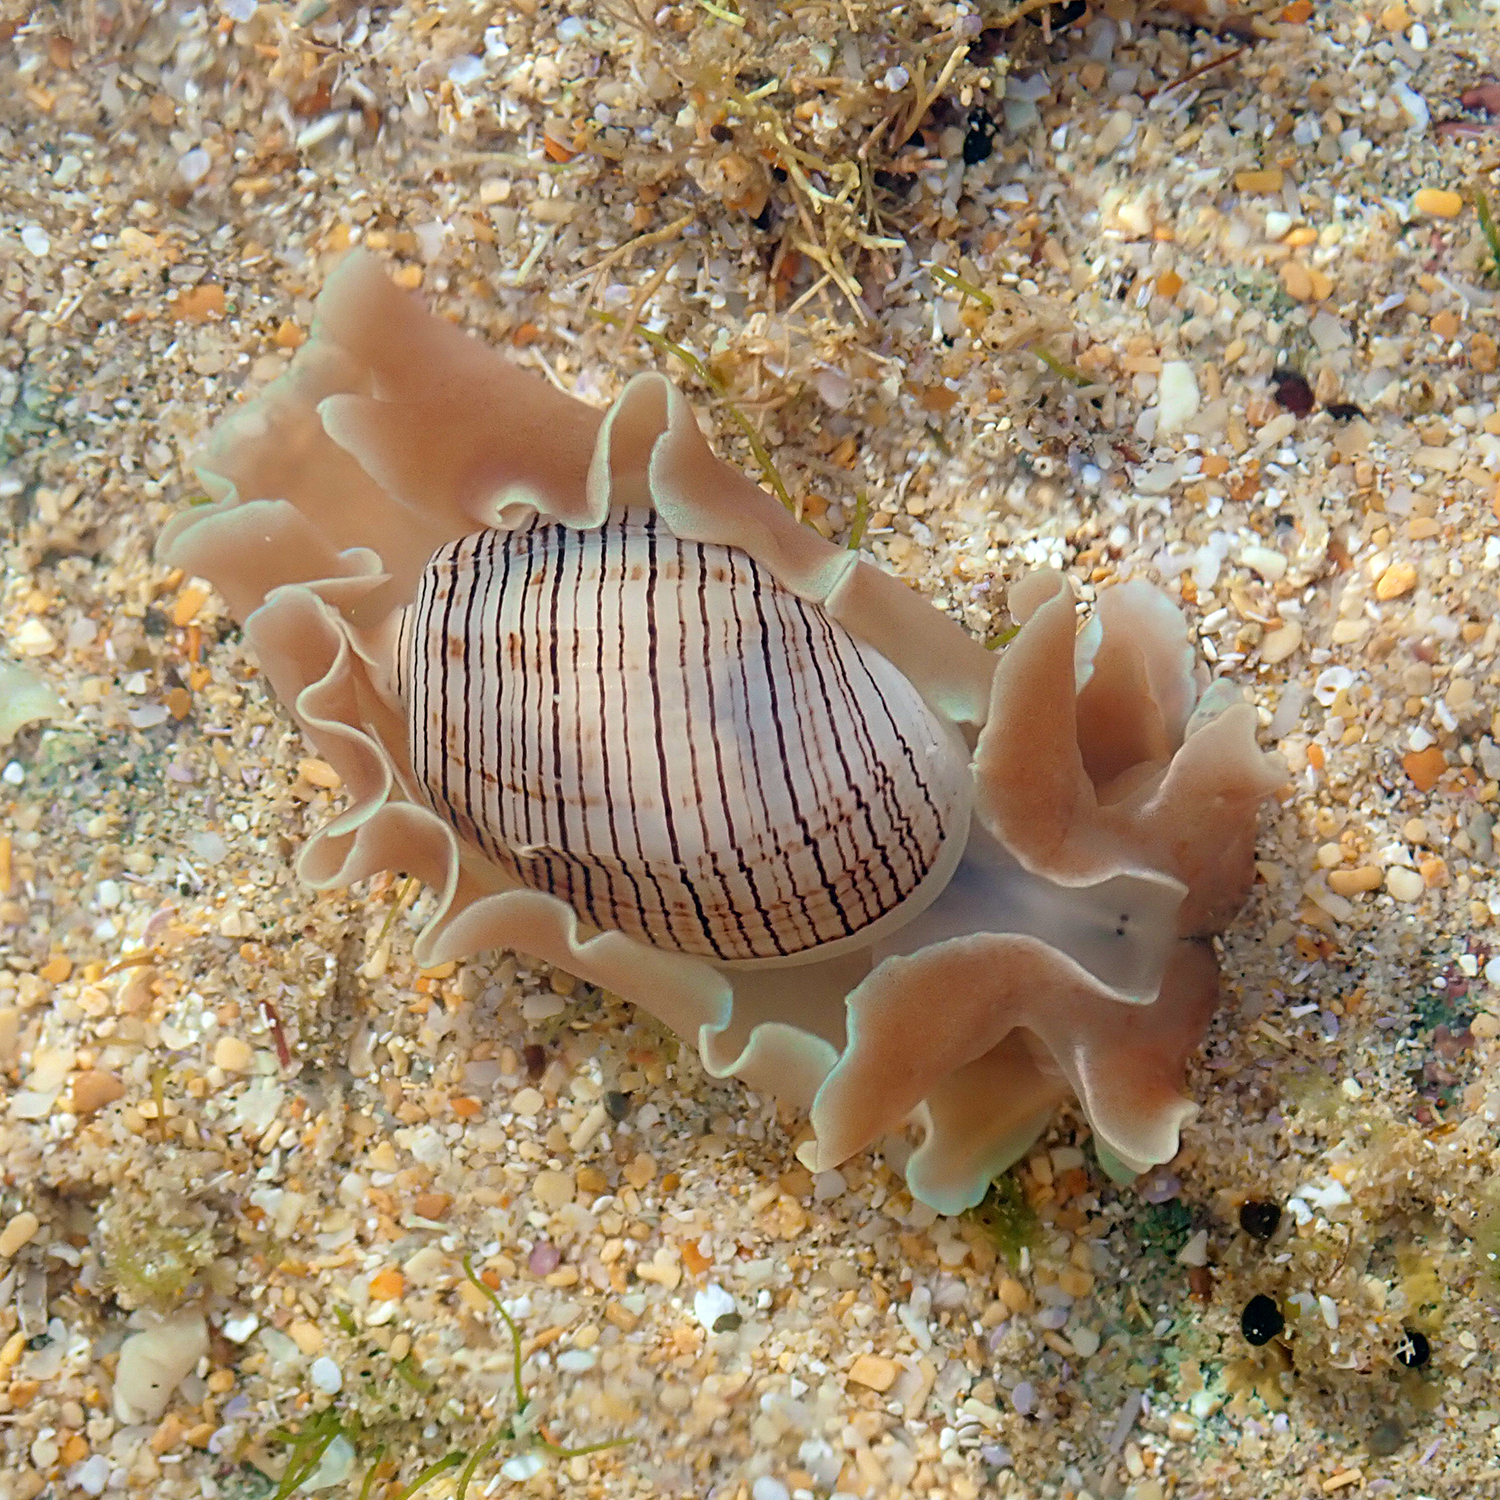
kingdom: Animalia
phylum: Mollusca
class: Gastropoda
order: Cephalaspidea
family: Aplustridae
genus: Hydatina
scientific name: Hydatina physis
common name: Brown-line paperbubble
